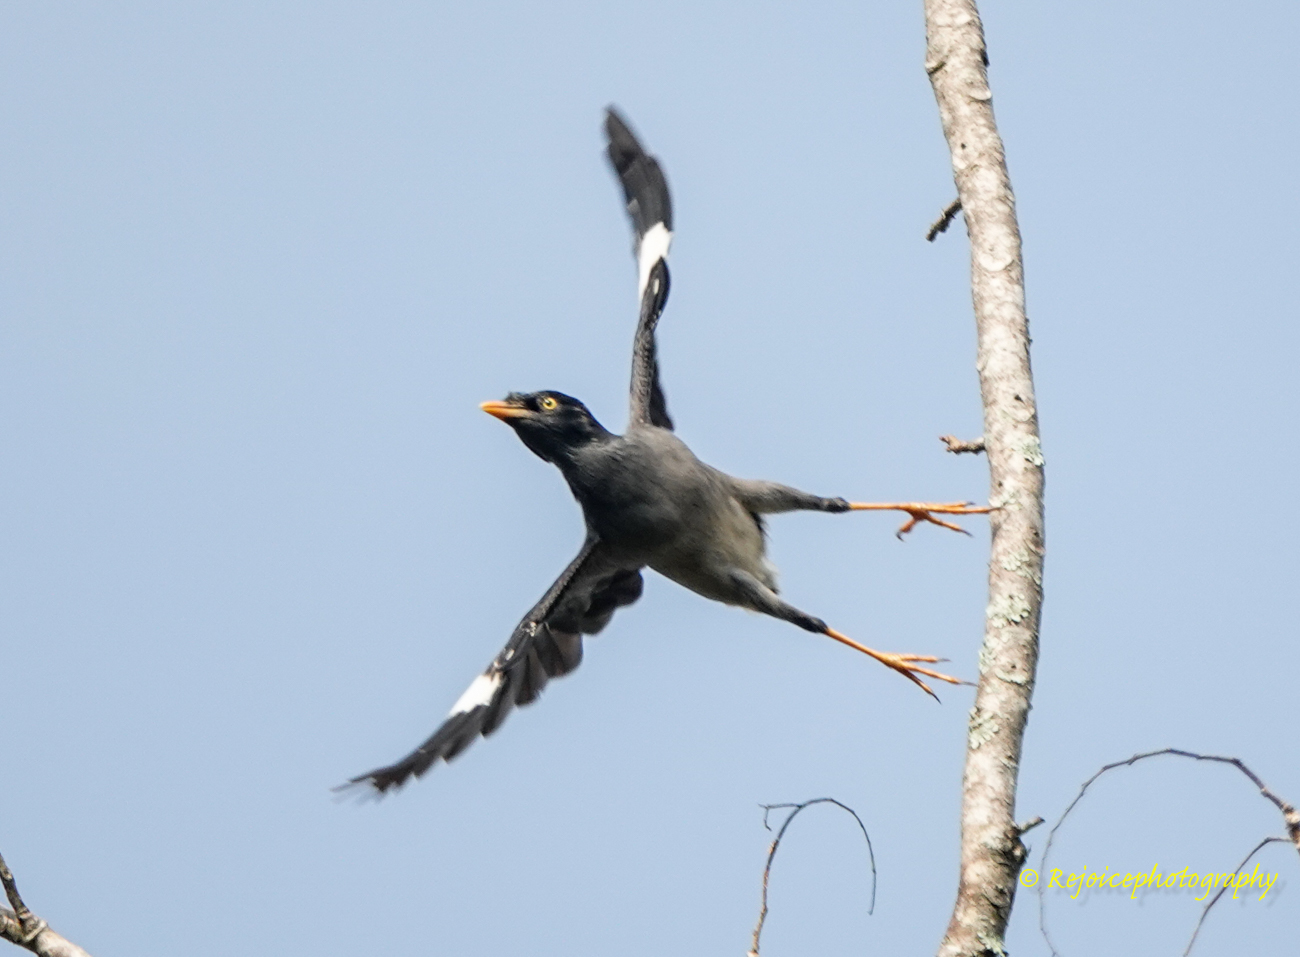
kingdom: Animalia
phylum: Chordata
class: Aves
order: Passeriformes
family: Sturnidae
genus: Acridotheres
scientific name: Acridotheres fuscus
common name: Jungle myna
